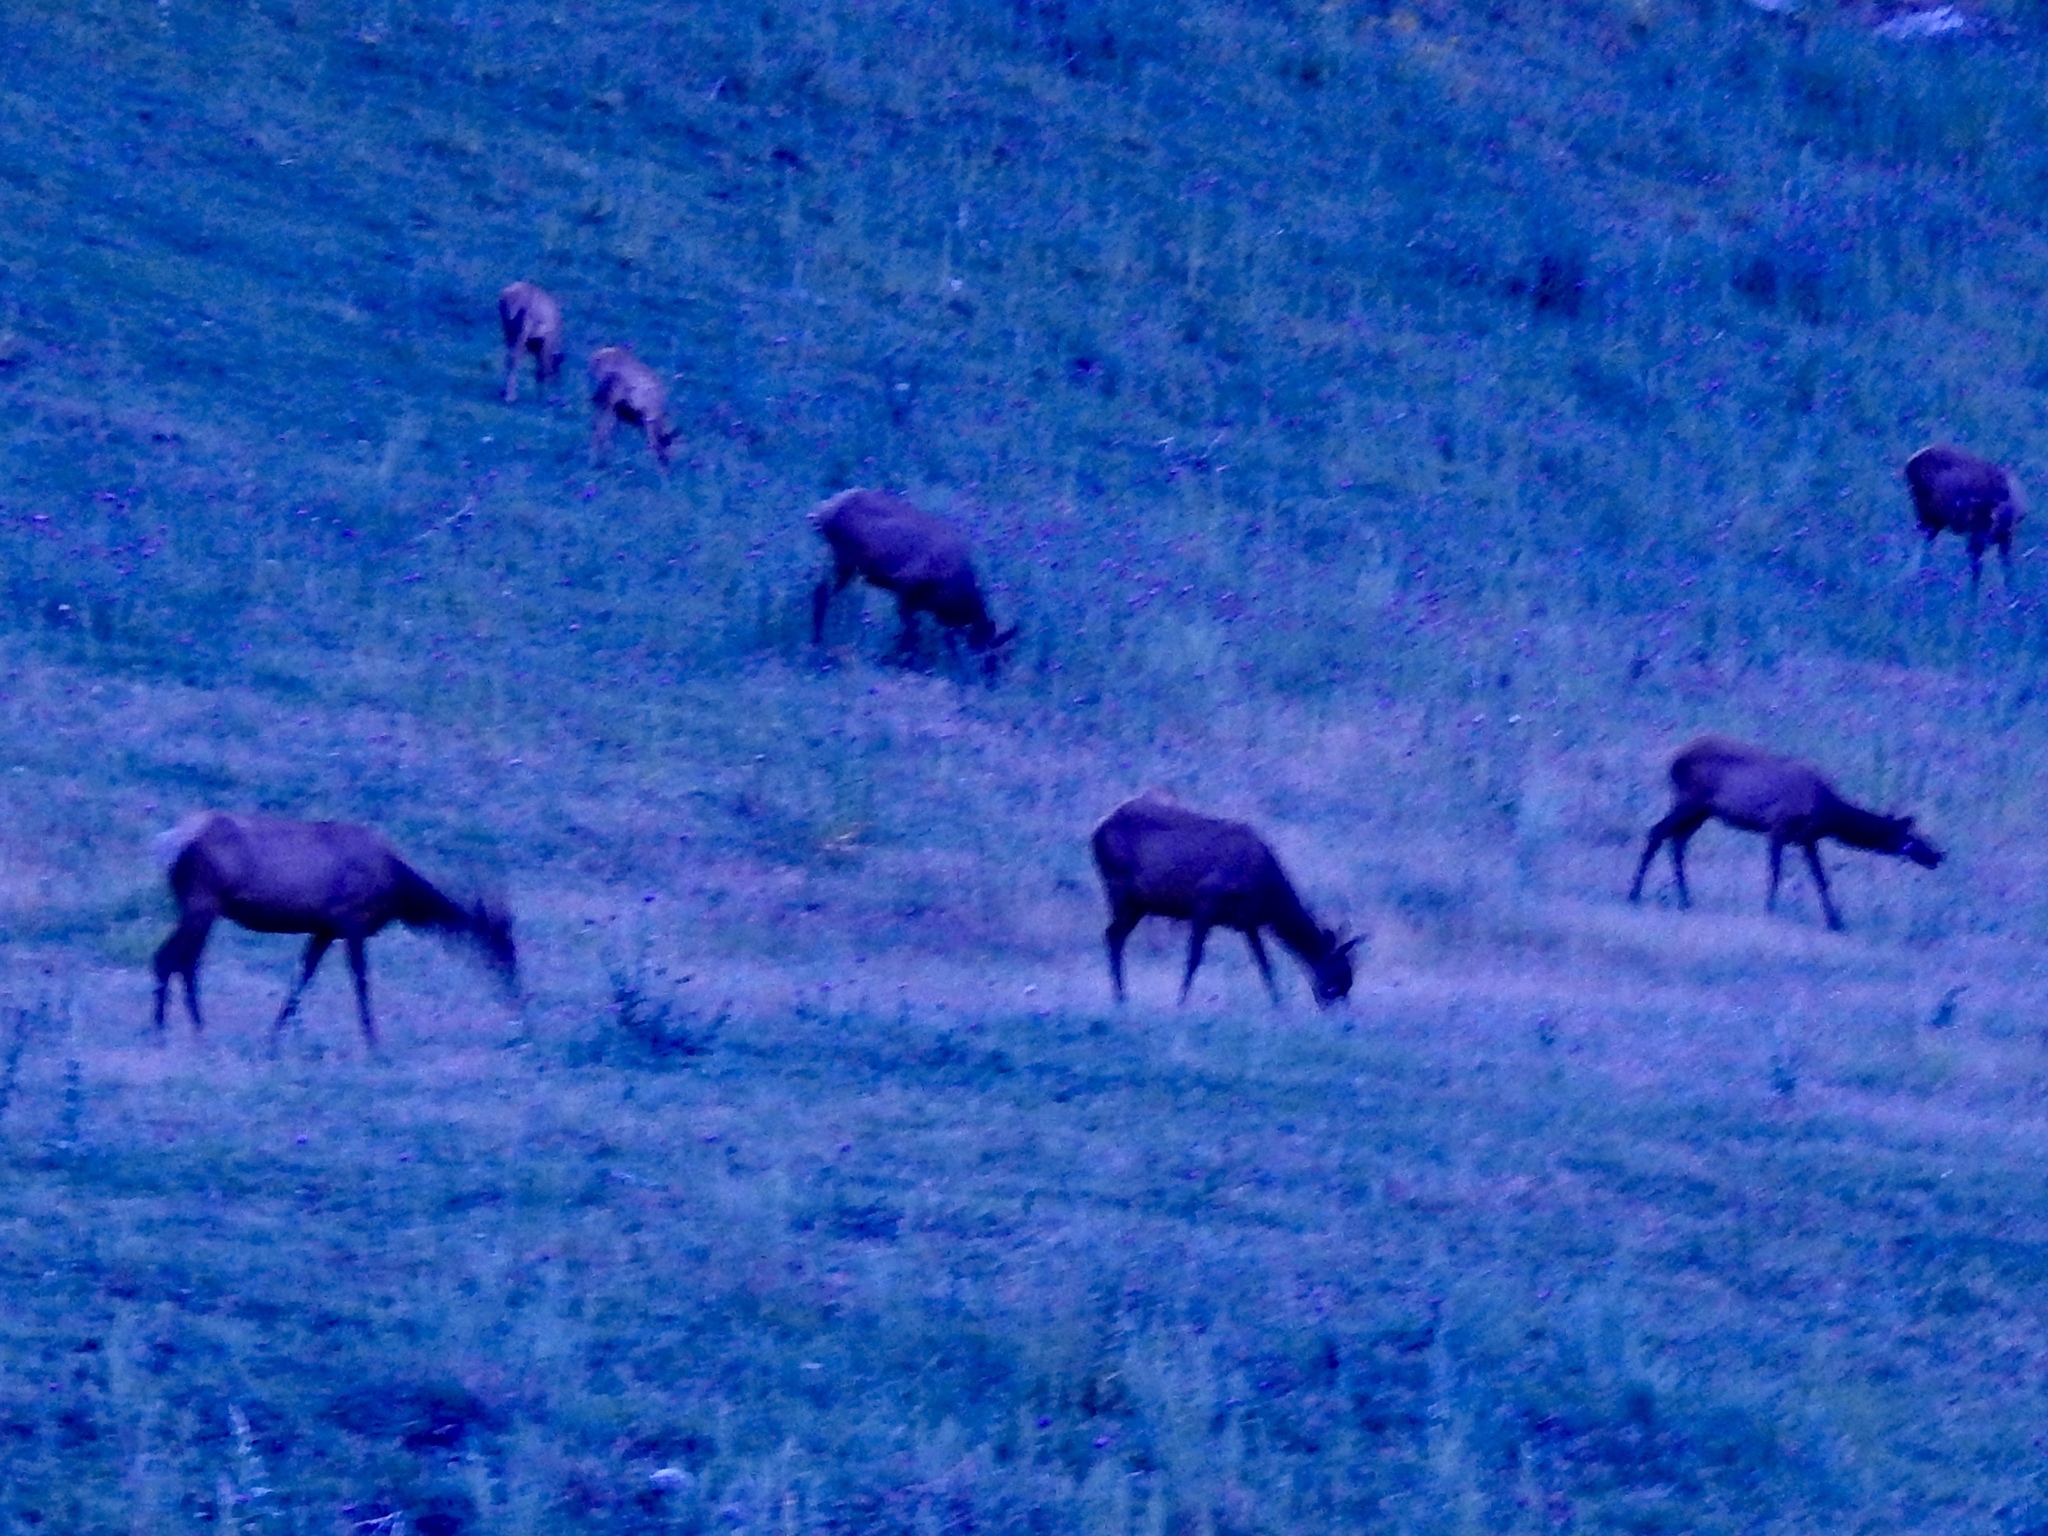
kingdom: Animalia
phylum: Chordata
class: Mammalia
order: Artiodactyla
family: Cervidae
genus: Cervus
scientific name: Cervus elaphus
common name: Red deer
